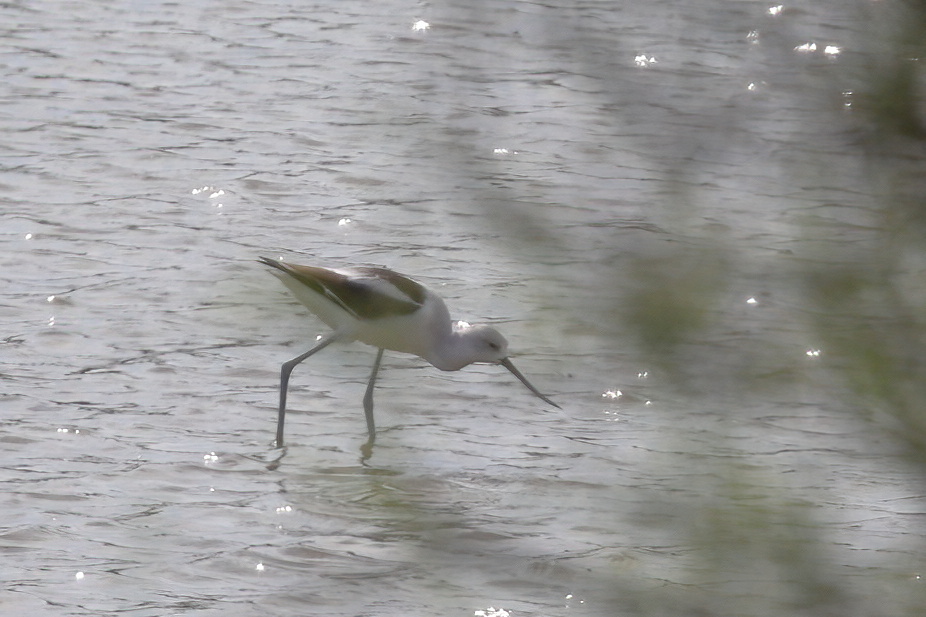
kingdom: Animalia
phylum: Chordata
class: Aves
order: Charadriiformes
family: Recurvirostridae
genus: Recurvirostra
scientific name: Recurvirostra americana
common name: American avocet
